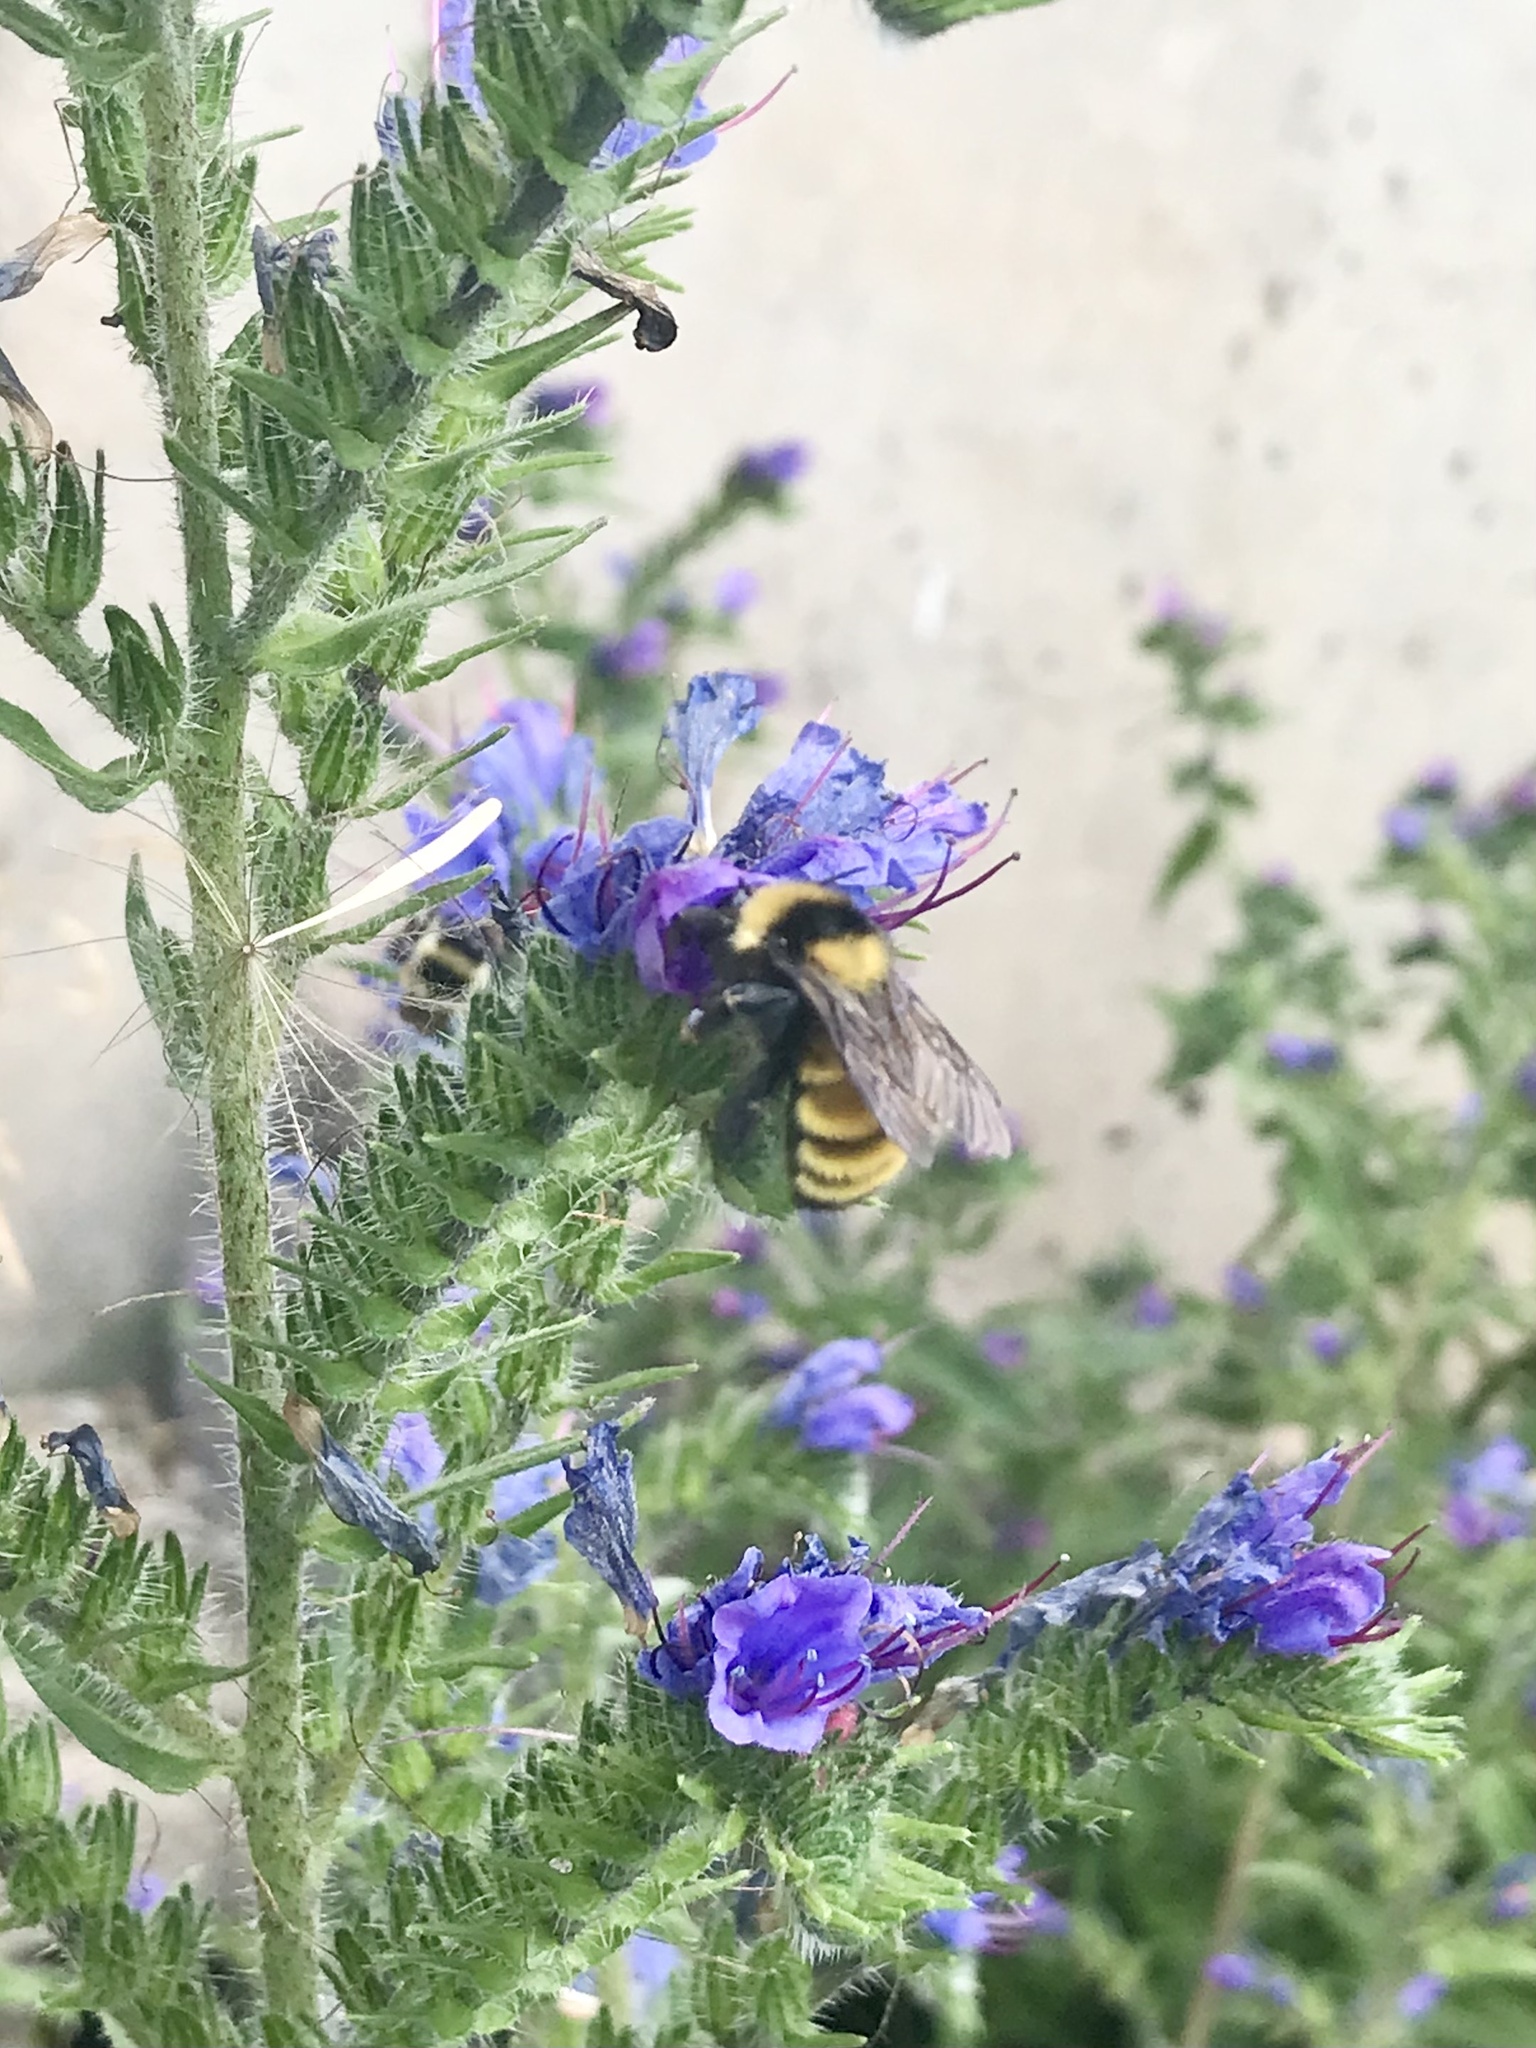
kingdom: Animalia
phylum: Arthropoda
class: Insecta
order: Hymenoptera
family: Apidae
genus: Bombus
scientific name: Bombus borealis
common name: Northern amber bumble bee
